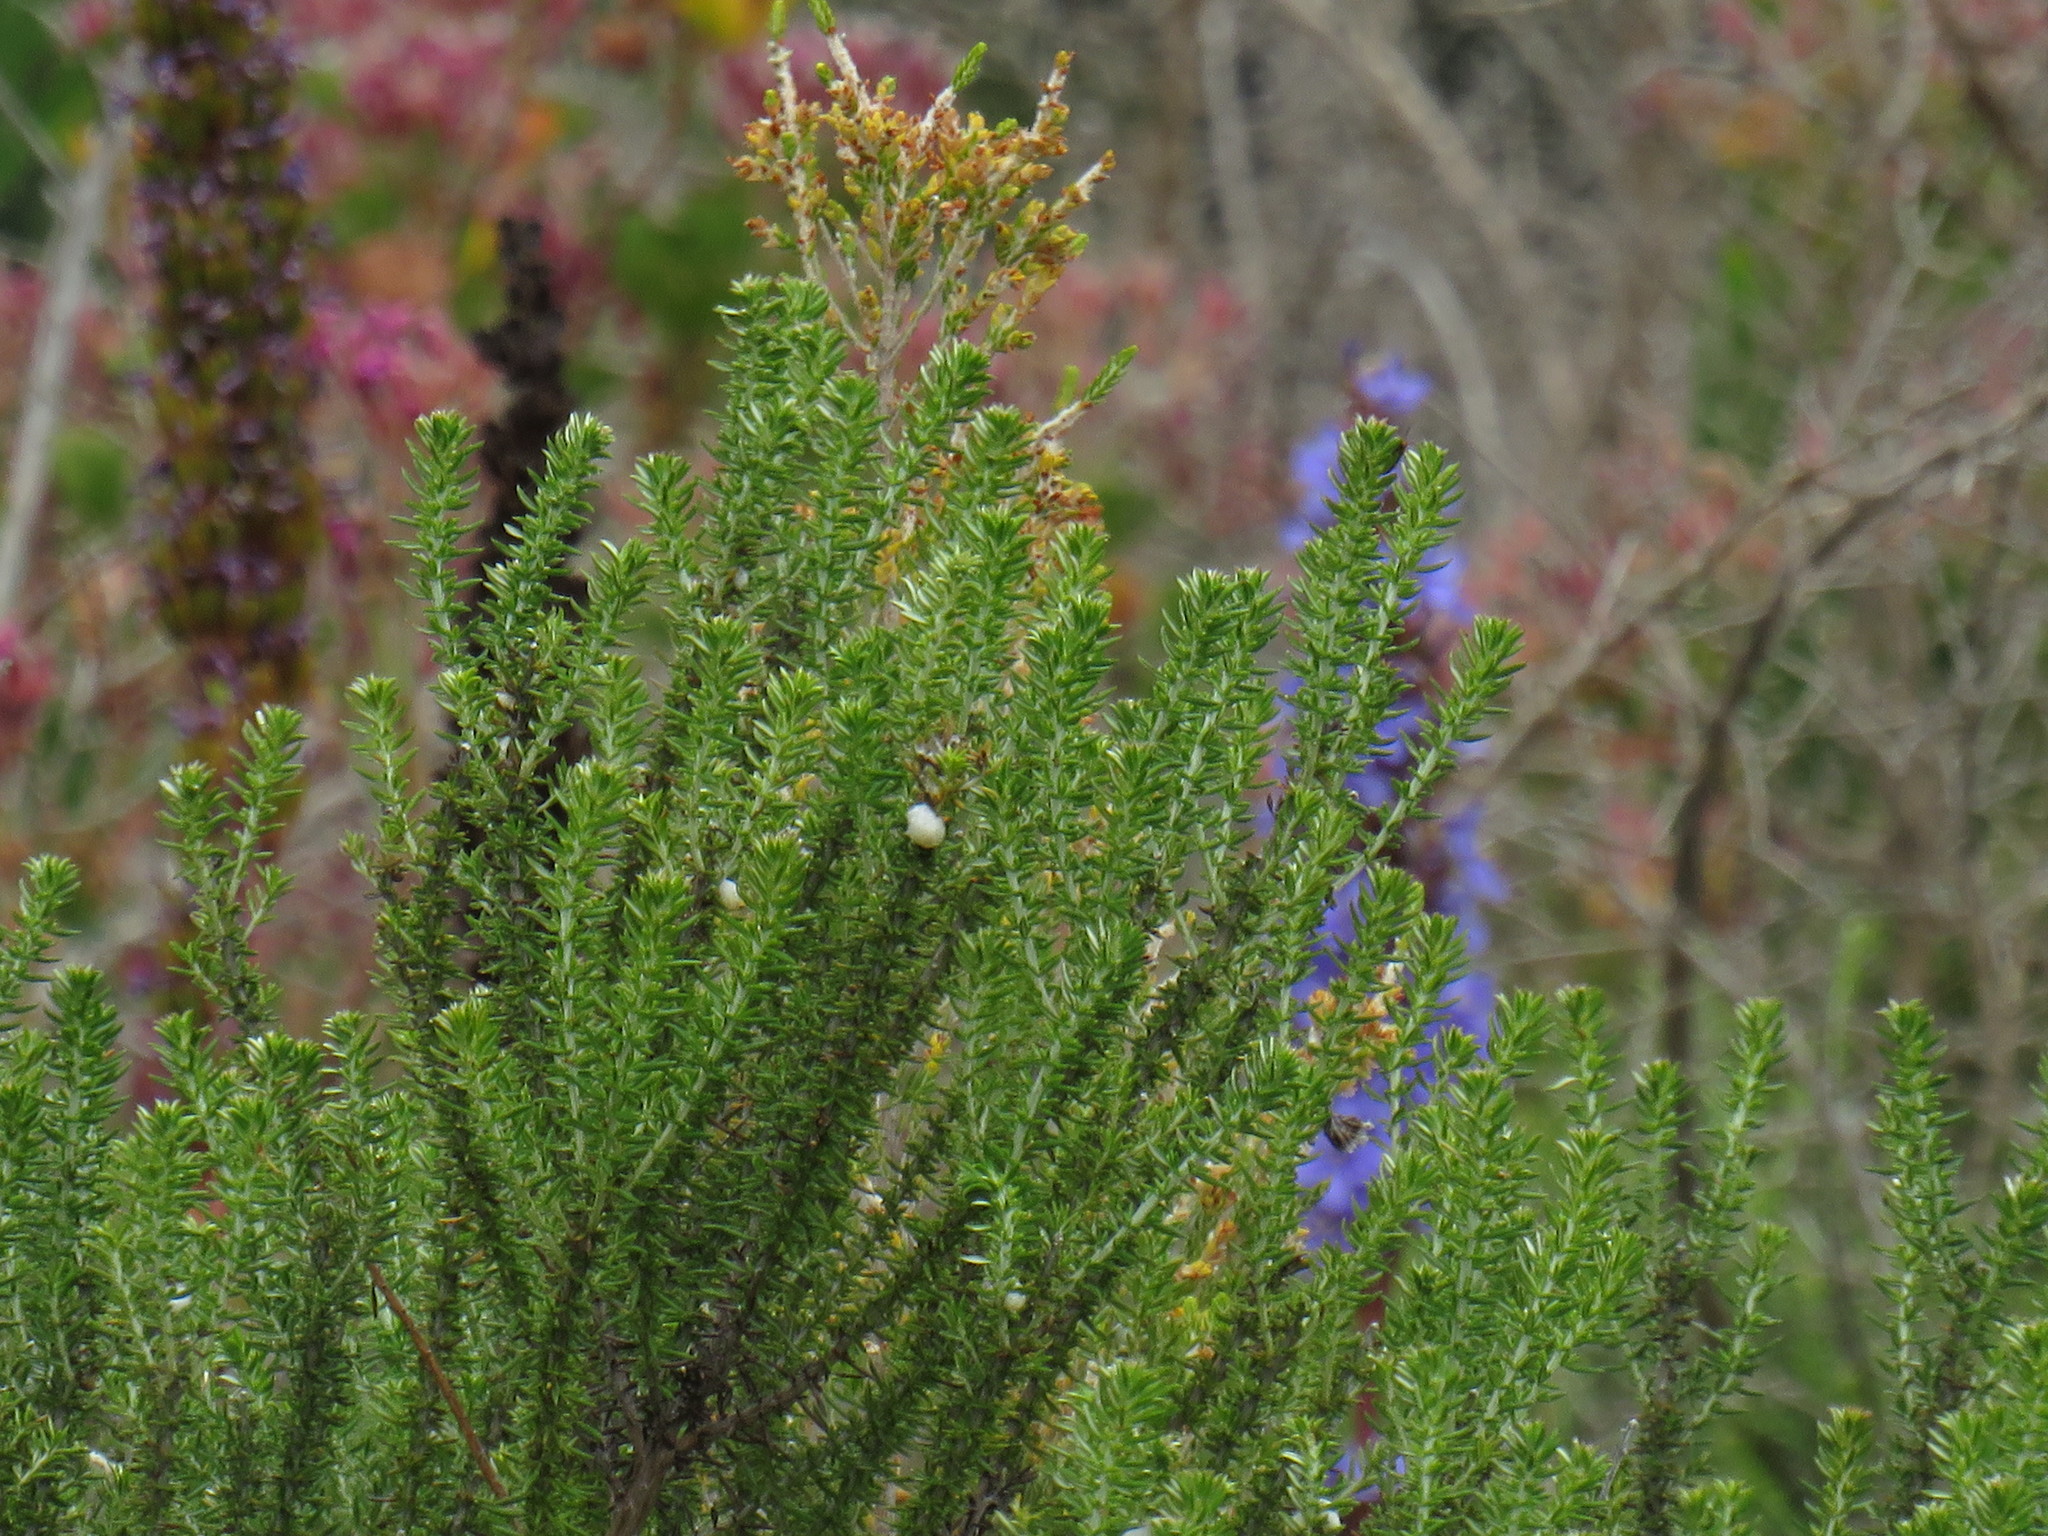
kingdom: Plantae
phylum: Tracheophyta
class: Liliopsida
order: Asparagales
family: Iridaceae
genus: Aristea
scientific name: Aristea capitata
